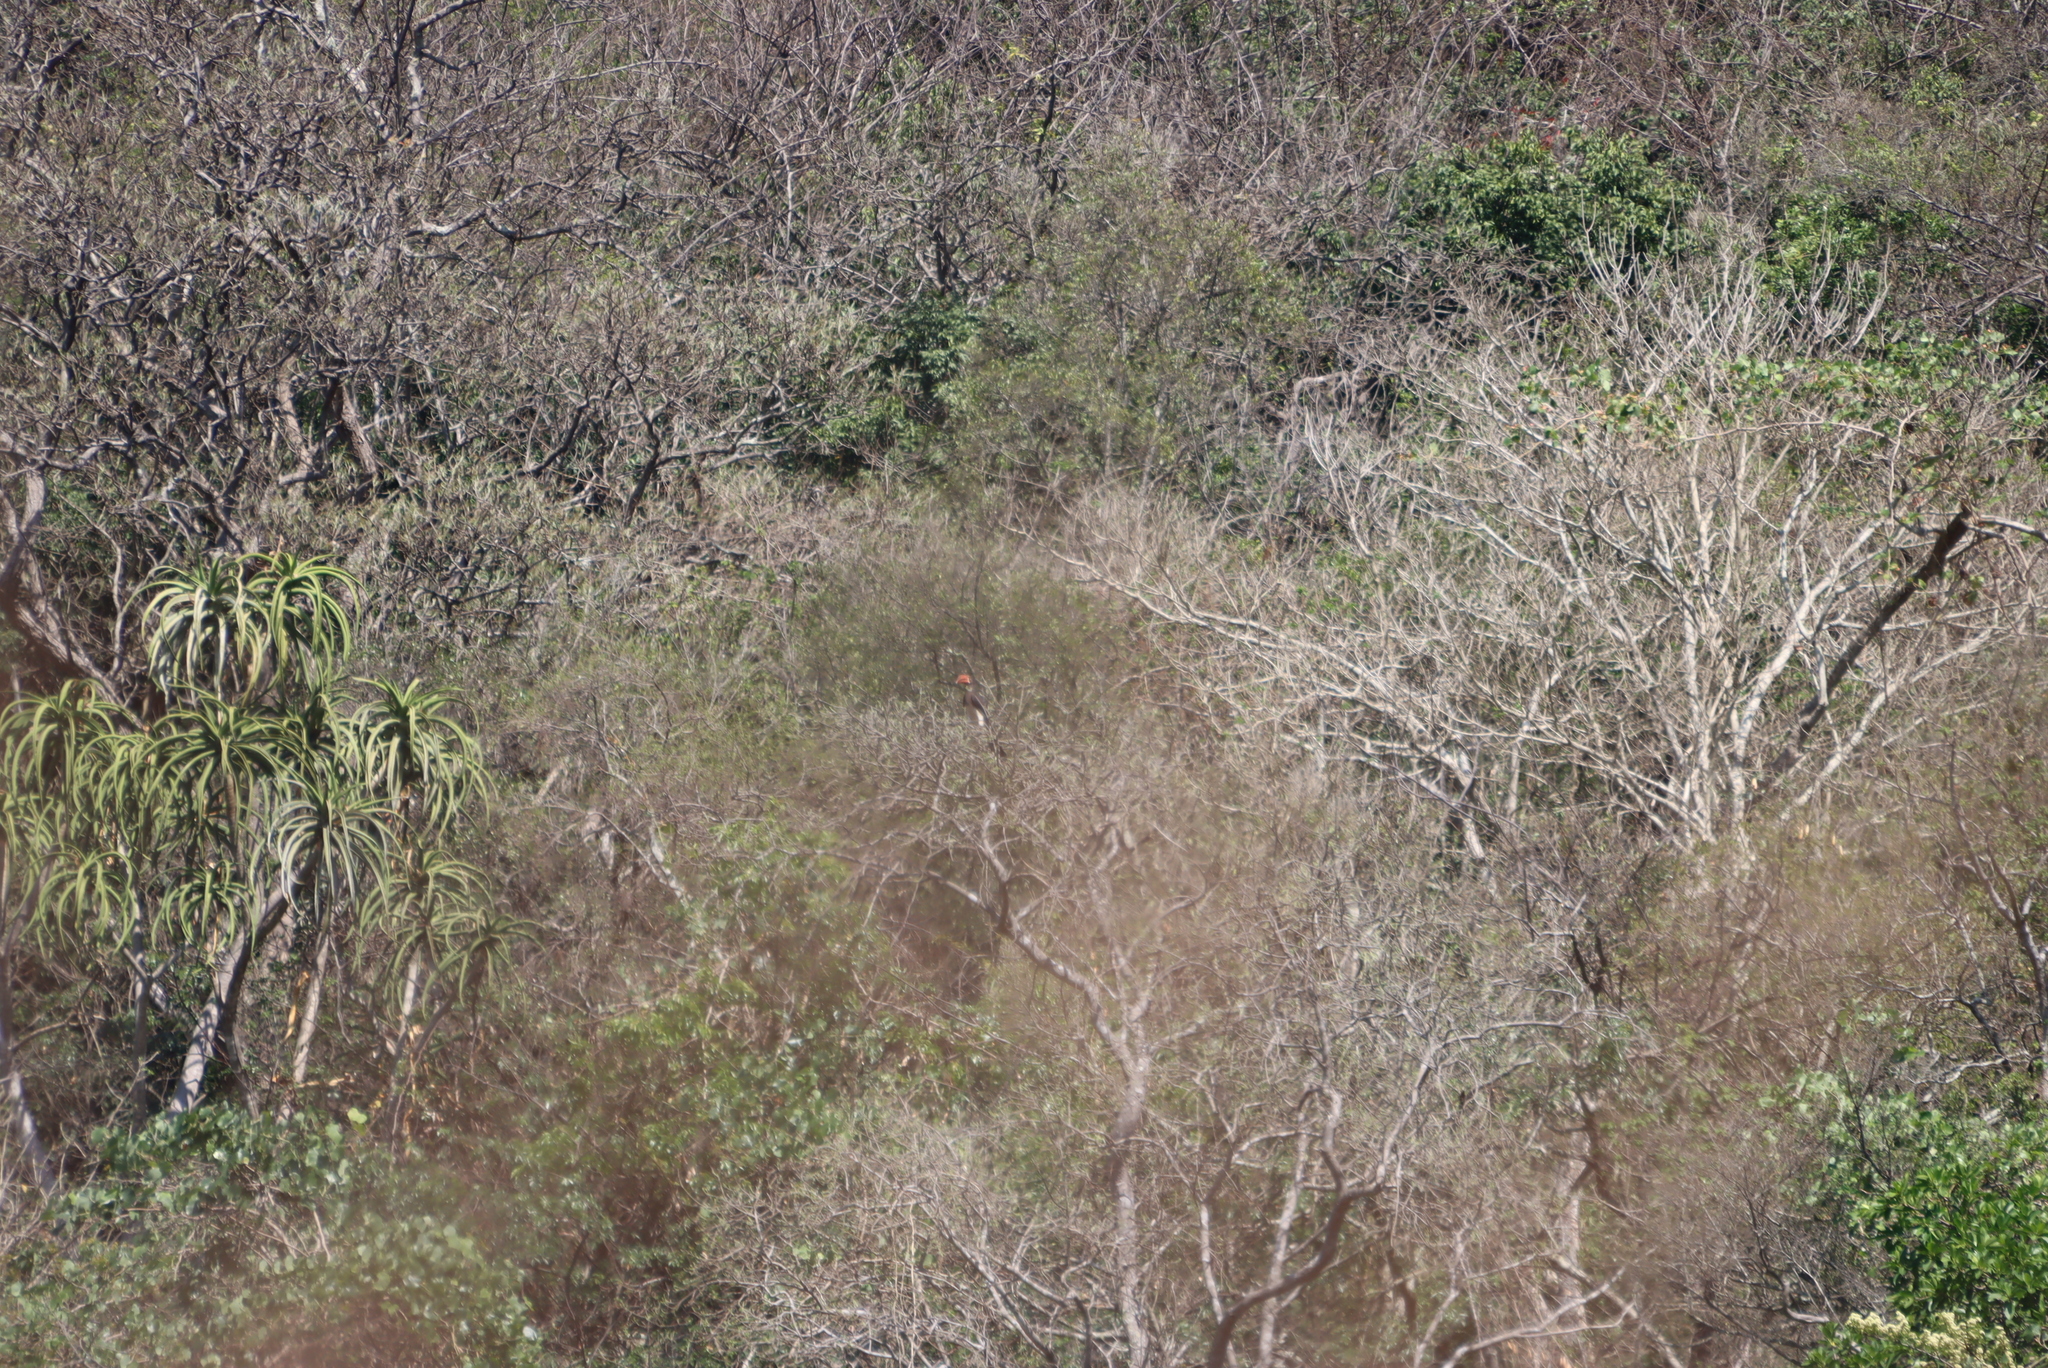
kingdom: Plantae
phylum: Tracheophyta
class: Liliopsida
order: Asparagales
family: Asphodelaceae
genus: Aloidendron
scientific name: Aloidendron barberae
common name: Tree aloe
